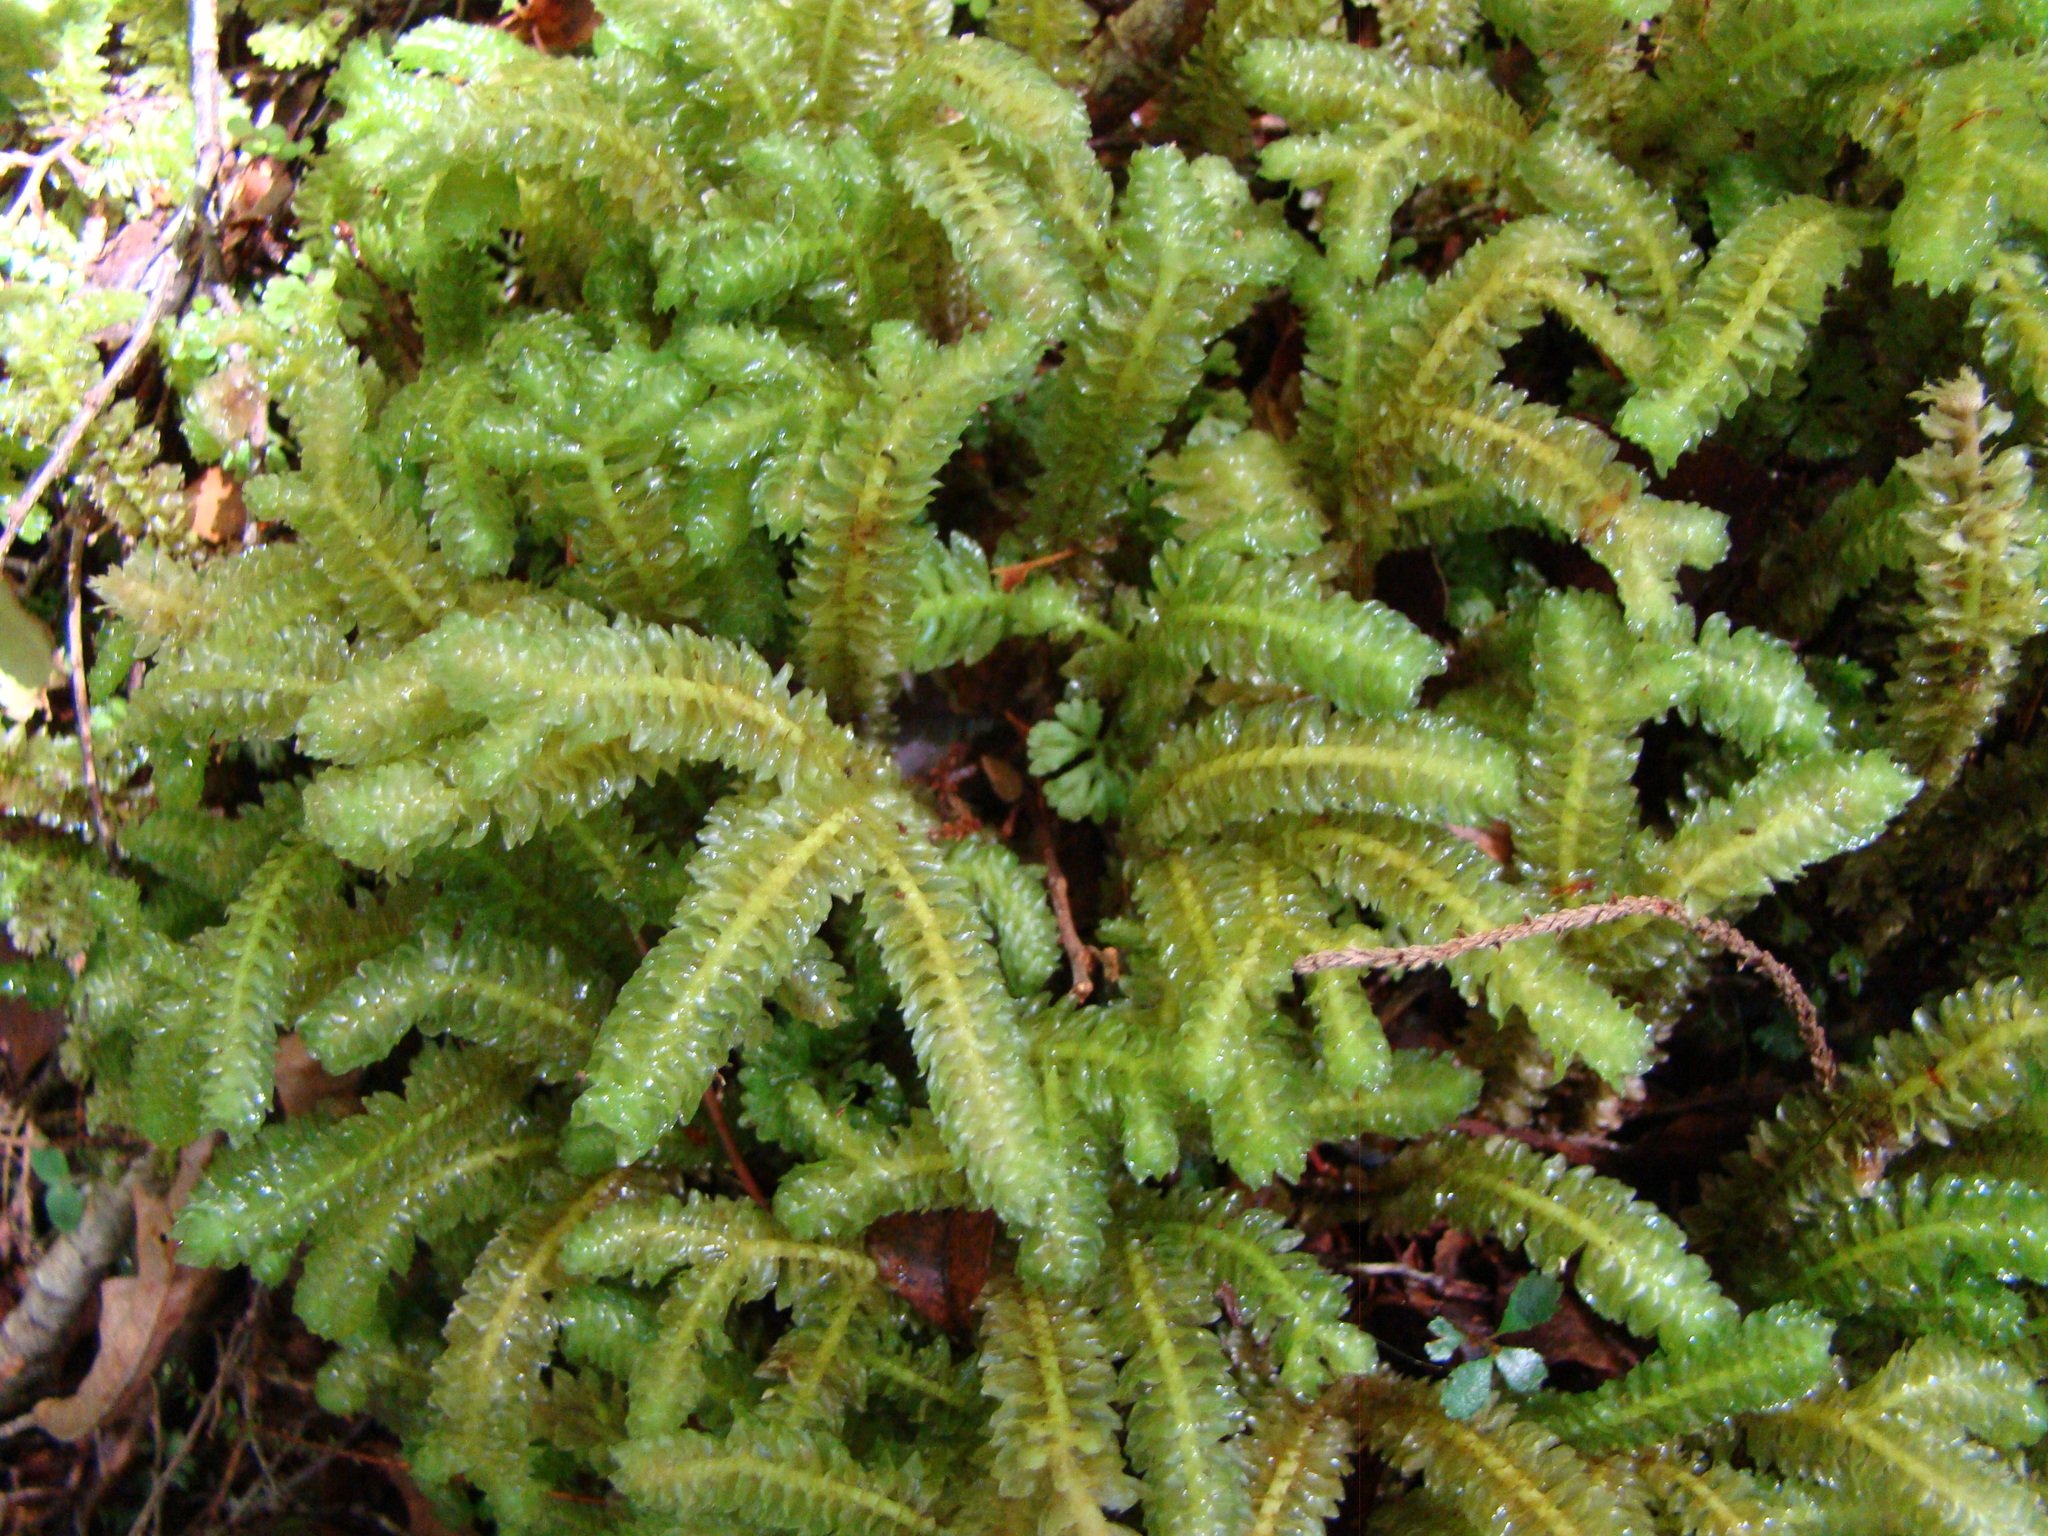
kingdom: Plantae
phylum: Marchantiophyta
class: Jungermanniopsida
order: Jungermanniales
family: Schistochilaceae
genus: Schistochila
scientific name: Schistochila appendiculata
